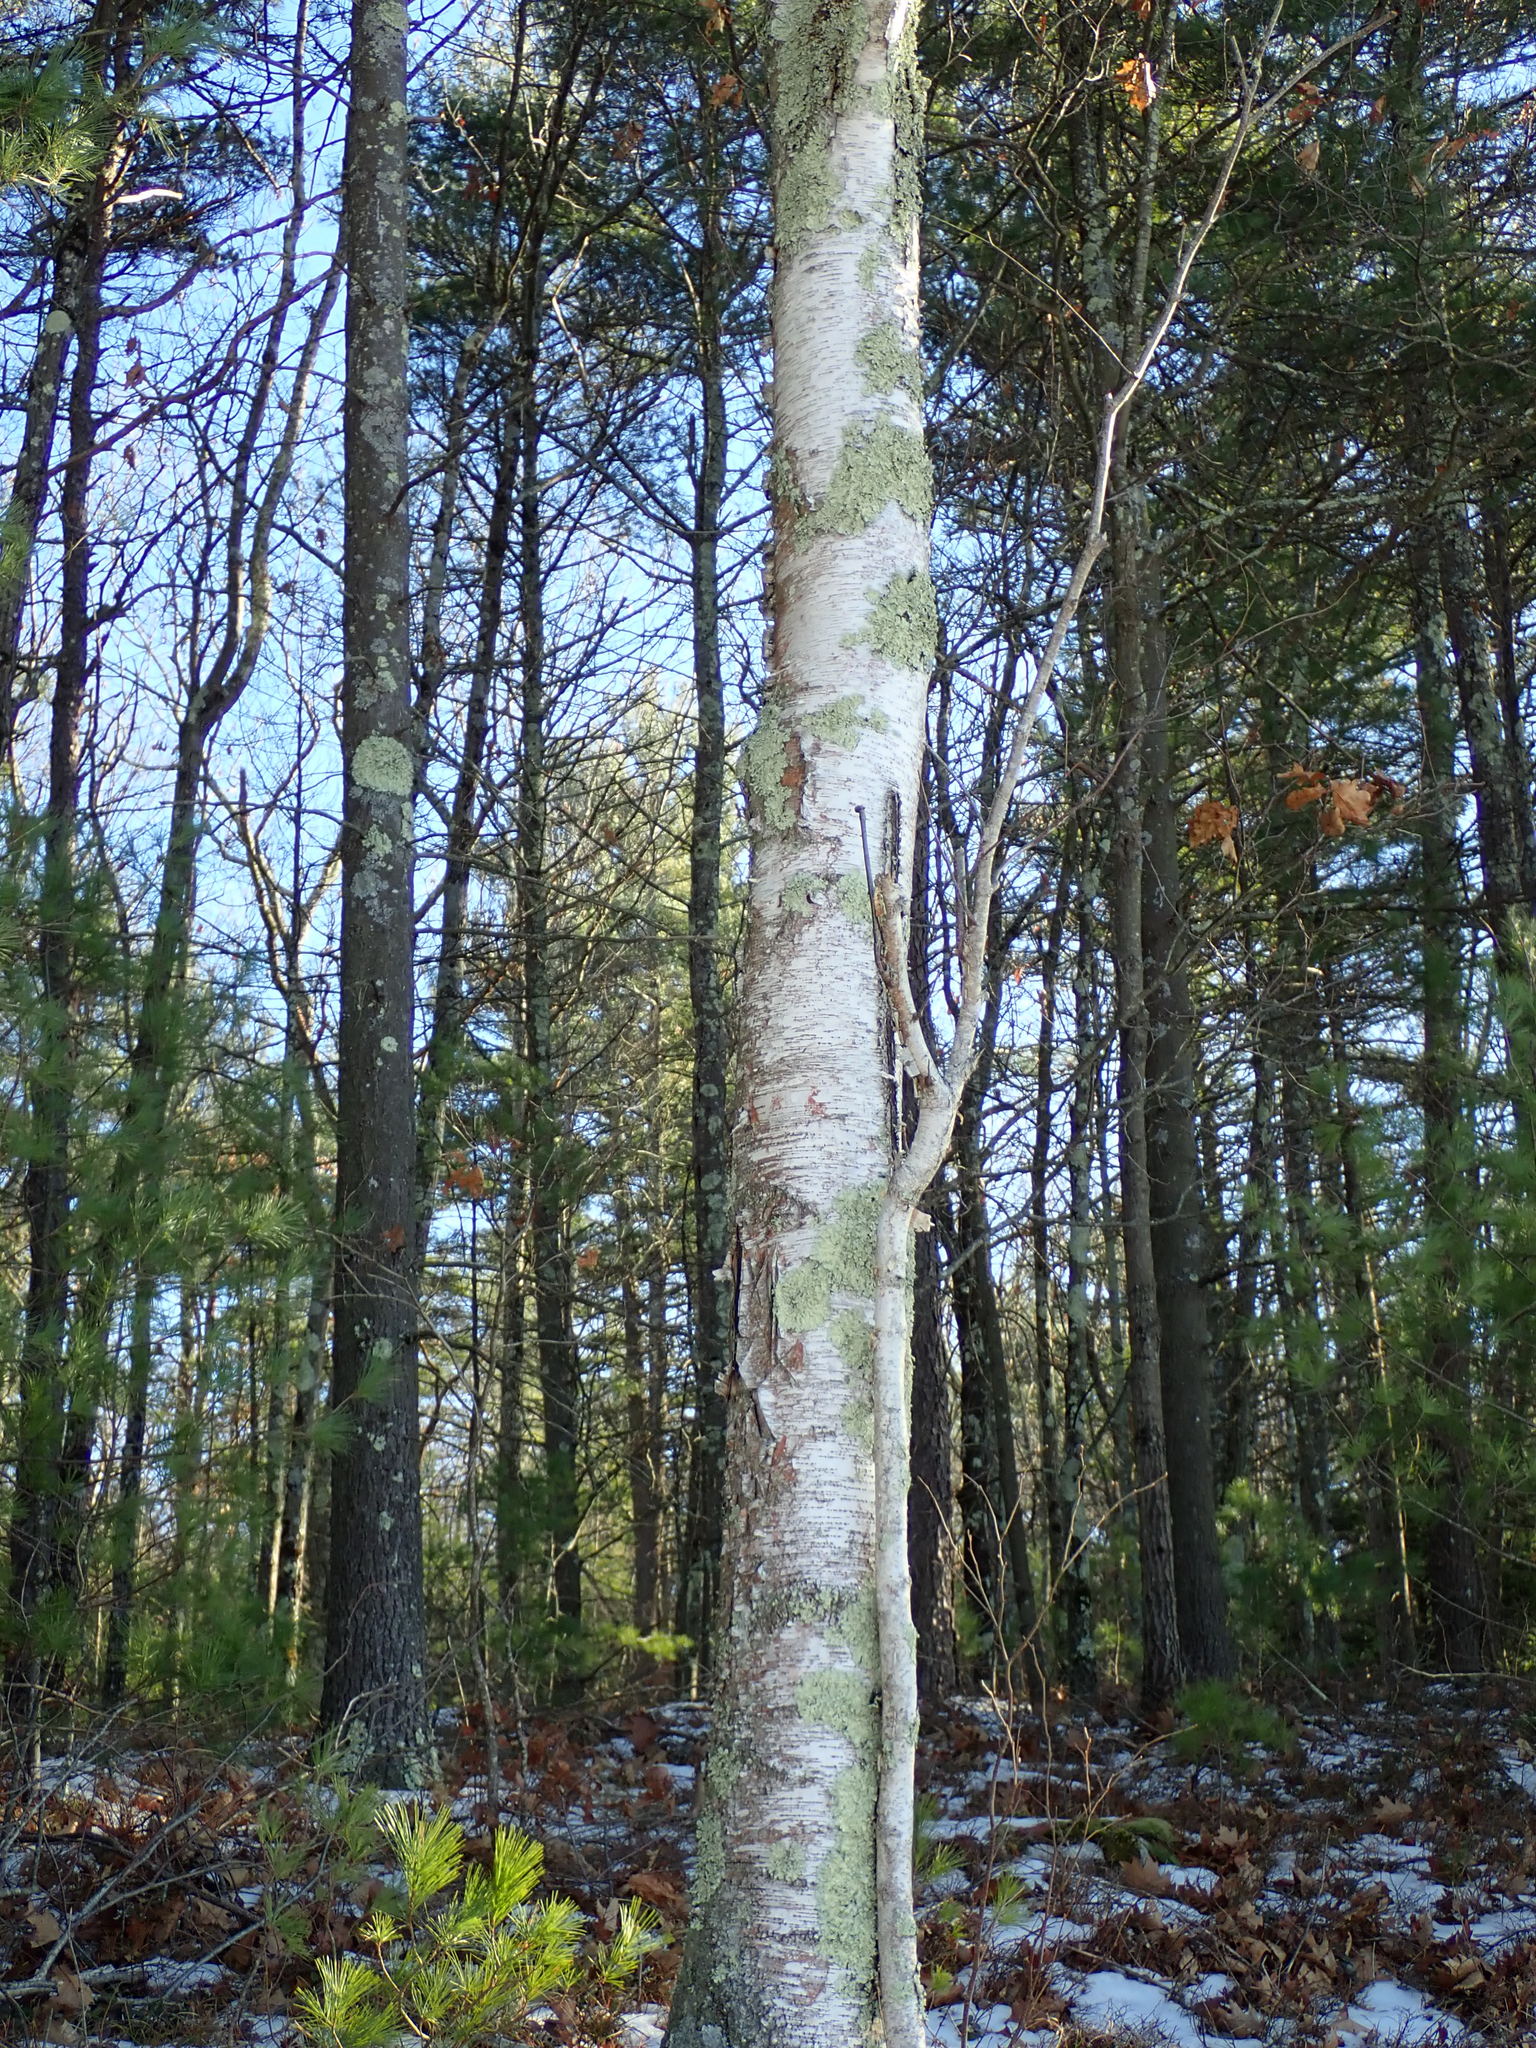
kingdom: Plantae
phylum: Tracheophyta
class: Magnoliopsida
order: Fagales
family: Betulaceae
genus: Betula
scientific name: Betula papyrifera
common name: Paper birch
